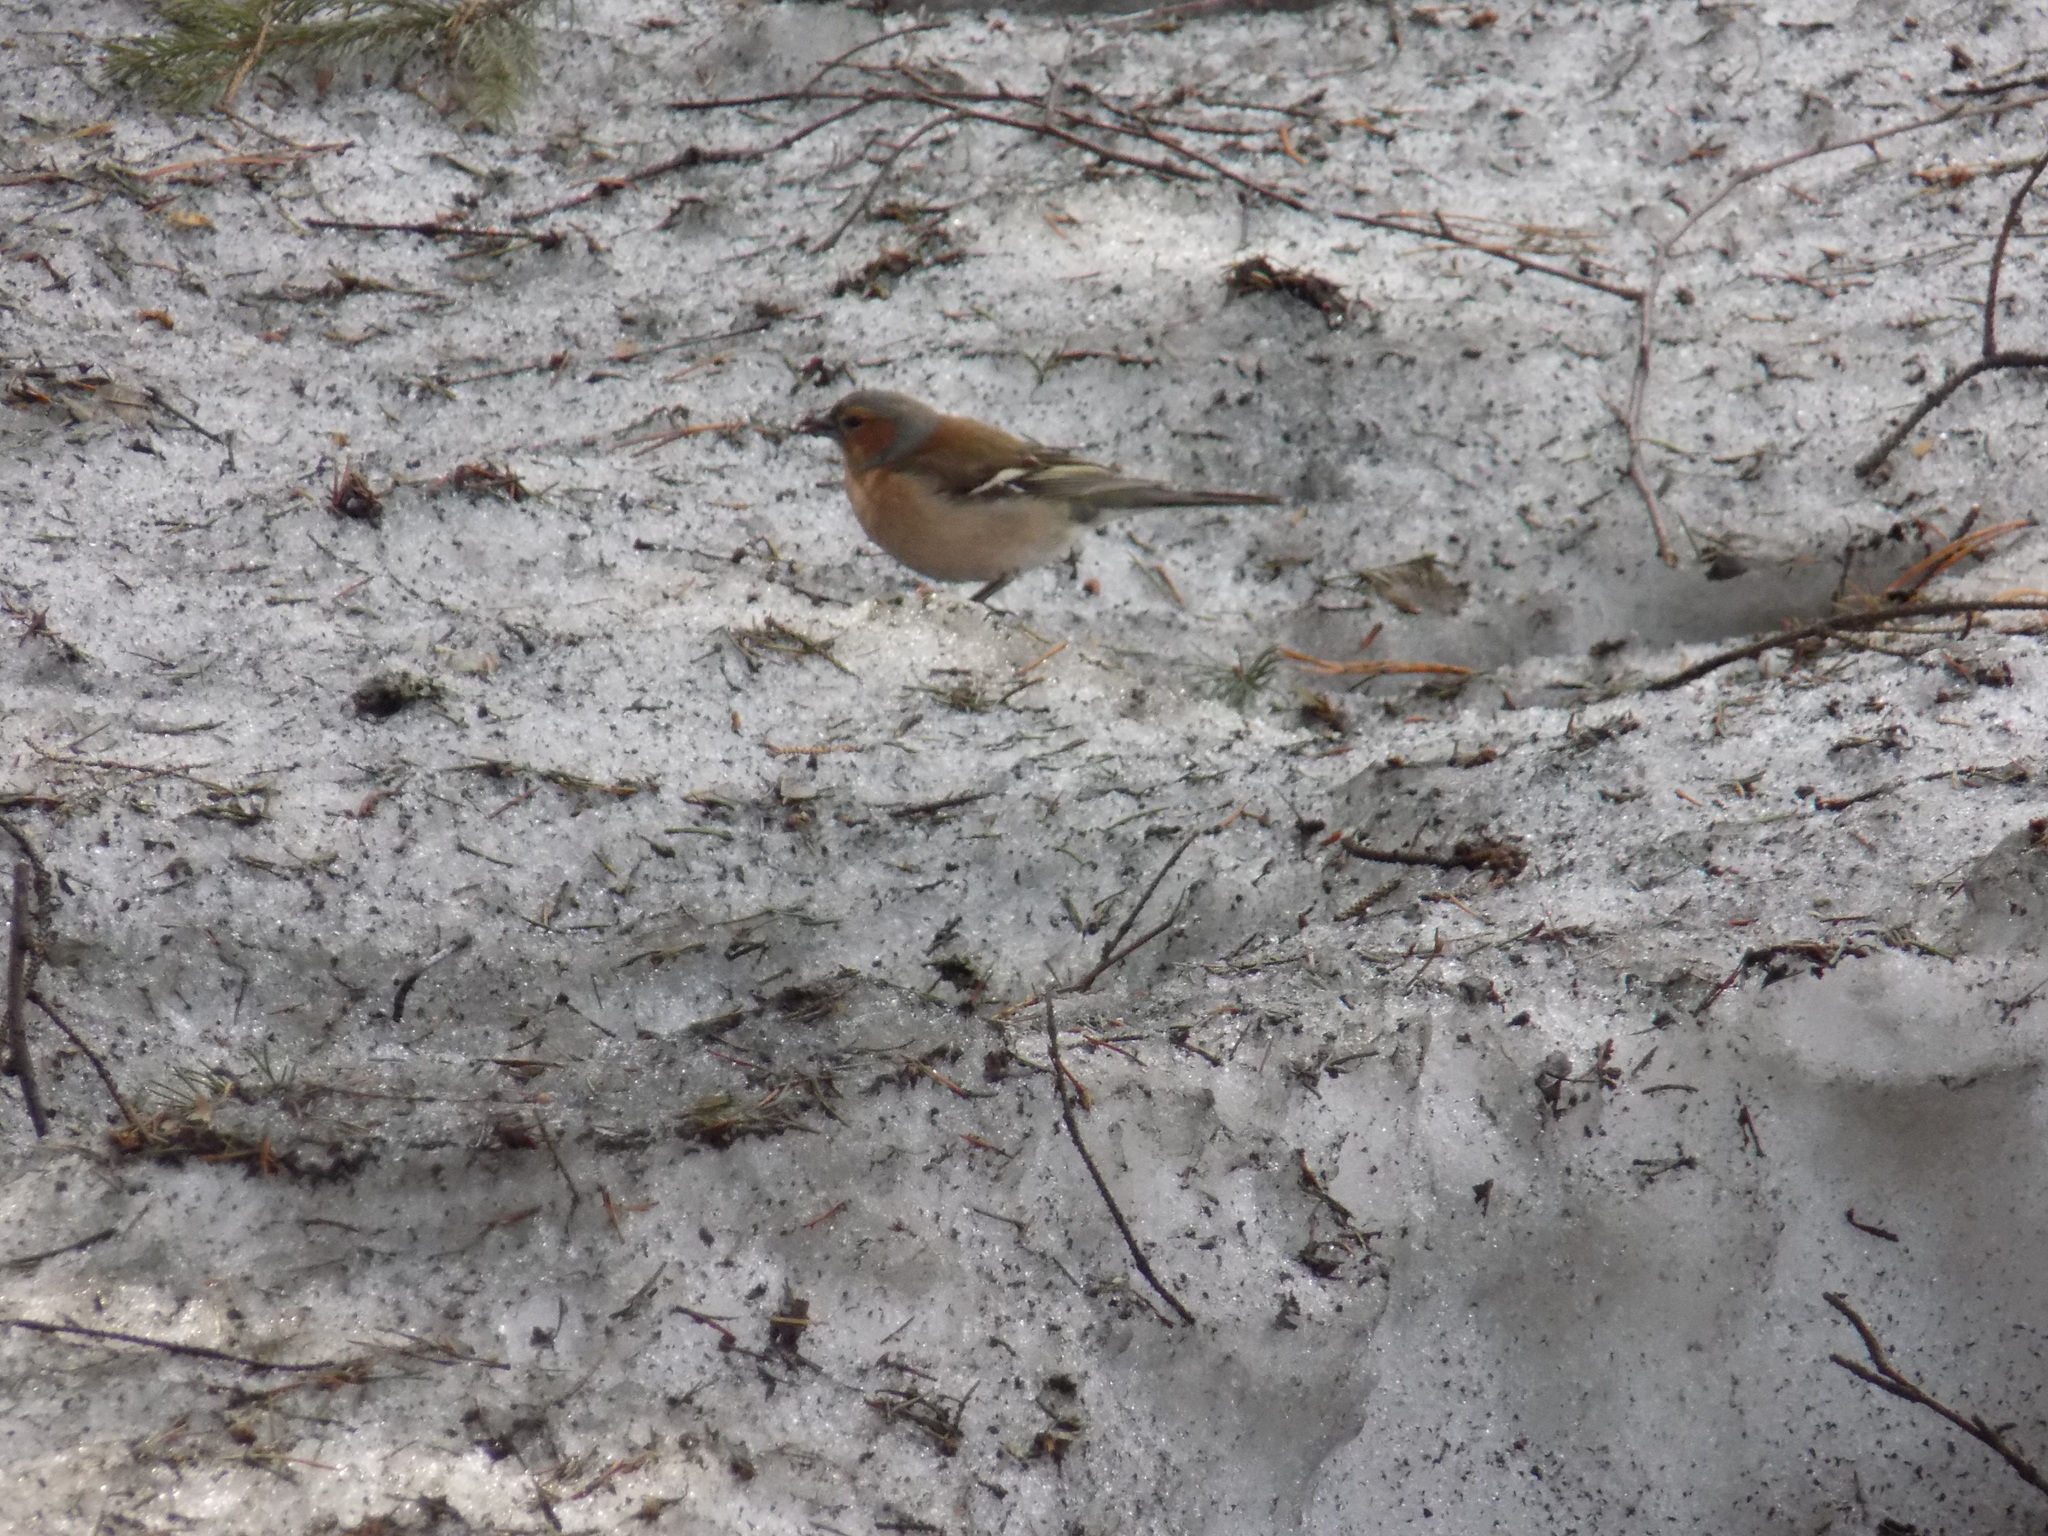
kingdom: Animalia
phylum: Chordata
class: Aves
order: Passeriformes
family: Fringillidae
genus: Fringilla
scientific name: Fringilla coelebs
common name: Common chaffinch
